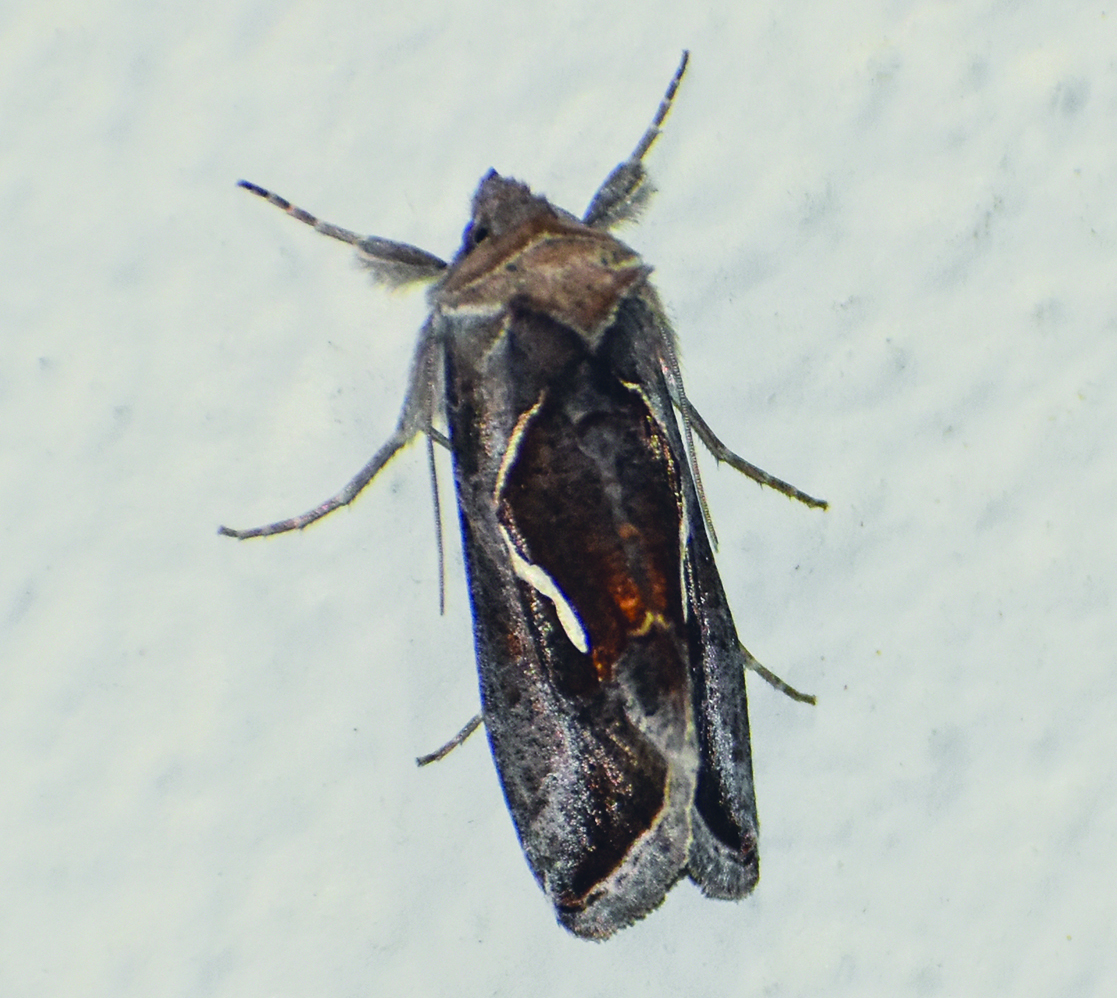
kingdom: Animalia
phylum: Arthropoda
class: Insecta
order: Lepidoptera
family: Noctuidae
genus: Macdunnoughia
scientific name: Macdunnoughia confusa
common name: Dewick's plusia
